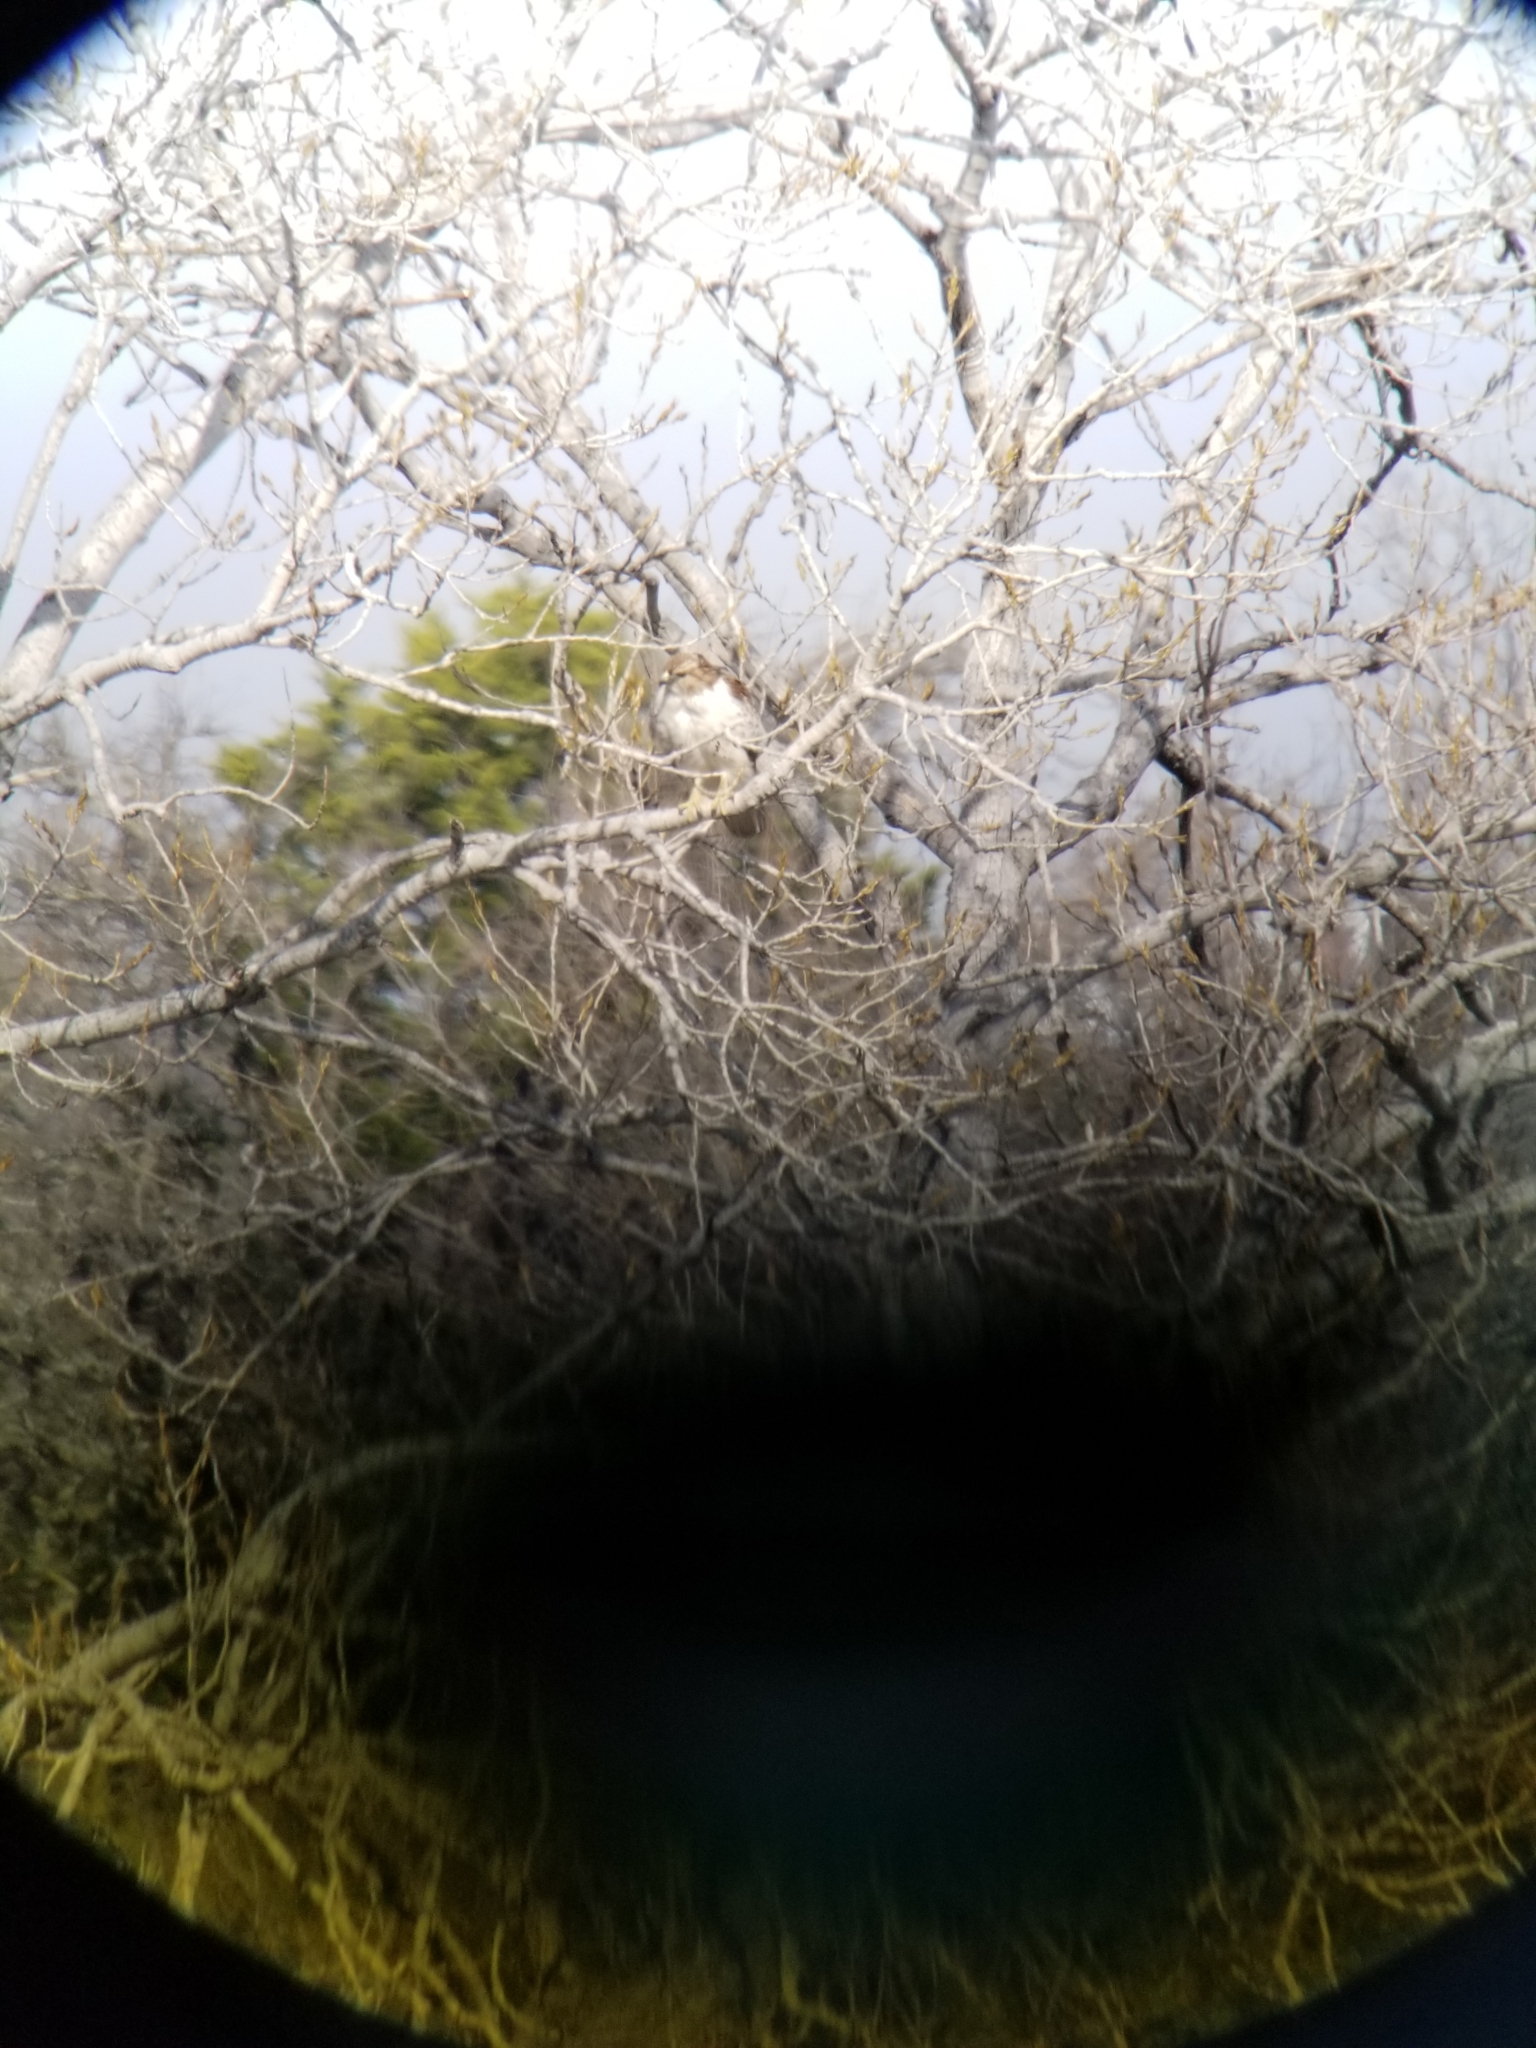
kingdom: Animalia
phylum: Chordata
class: Aves
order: Accipitriformes
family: Accipitridae
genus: Buteo
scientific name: Buteo jamaicensis
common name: Red-tailed hawk
